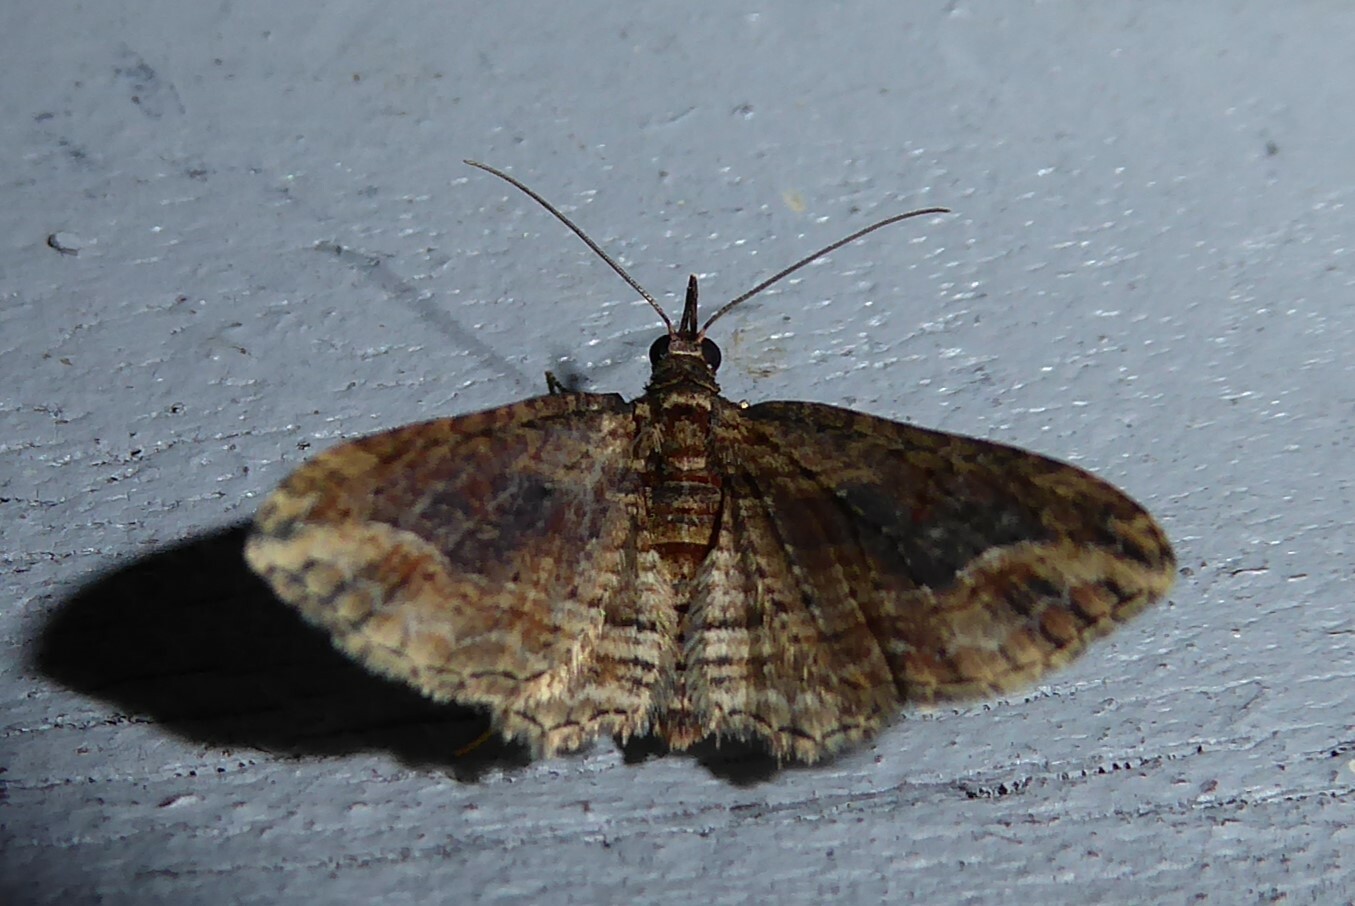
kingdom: Animalia
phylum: Arthropoda
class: Insecta
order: Lepidoptera
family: Geometridae
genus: Chloroclystis
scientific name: Chloroclystis filata
